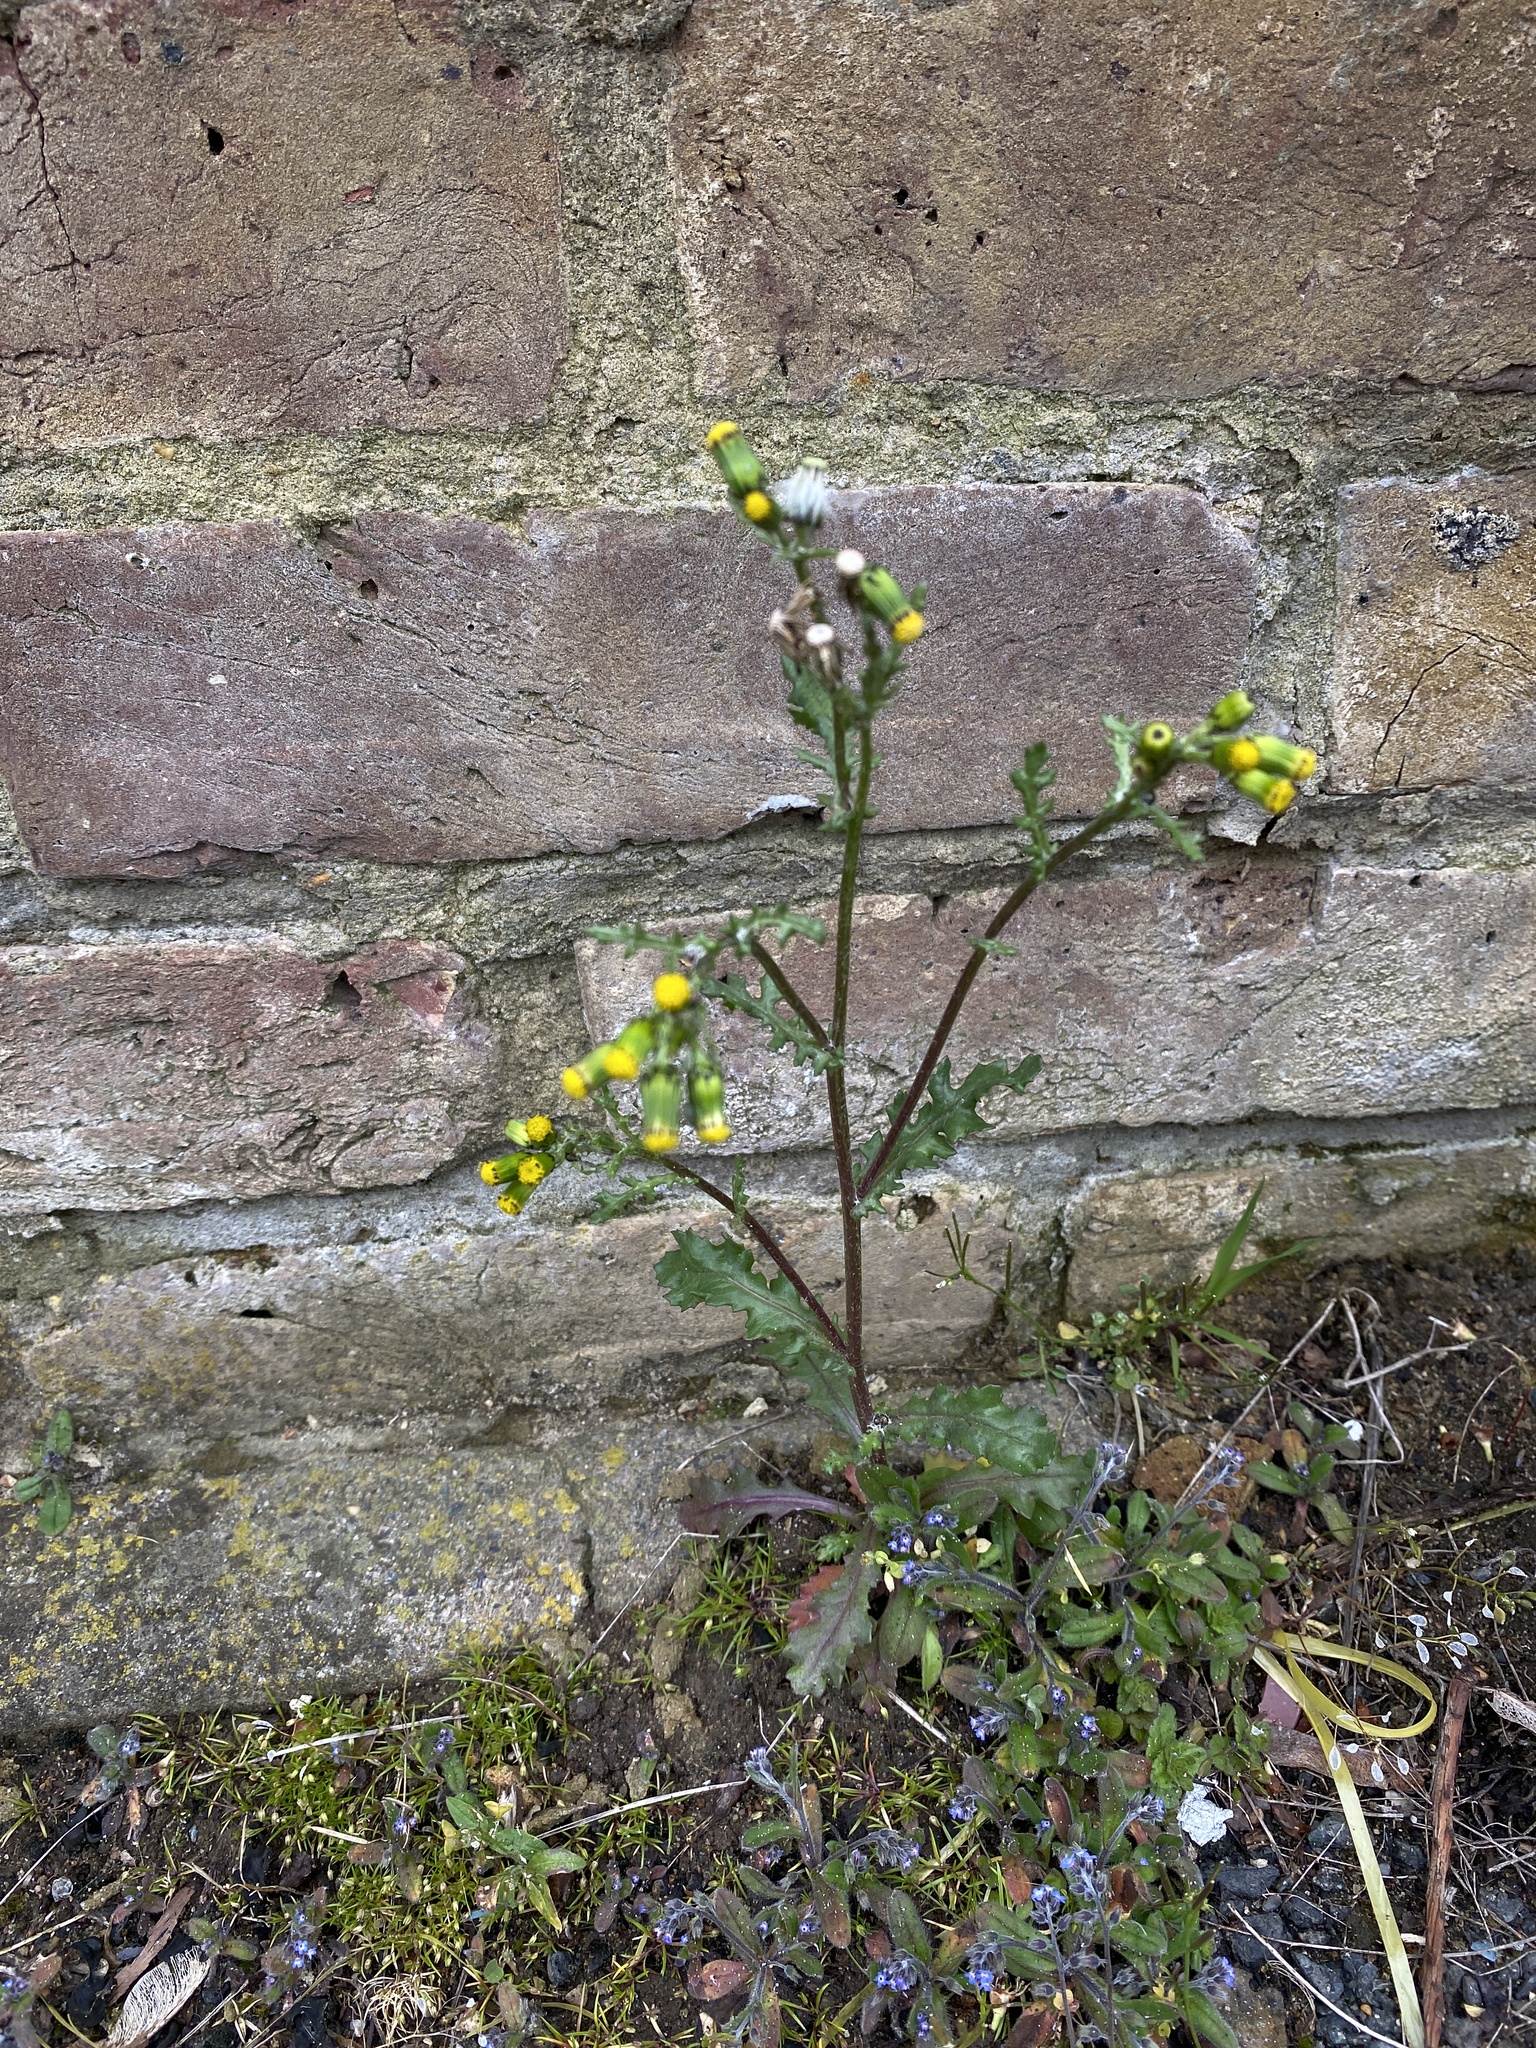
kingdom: Plantae
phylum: Tracheophyta
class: Magnoliopsida
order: Asterales
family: Asteraceae
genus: Senecio
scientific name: Senecio vulgaris
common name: Old-man-in-the-spring
